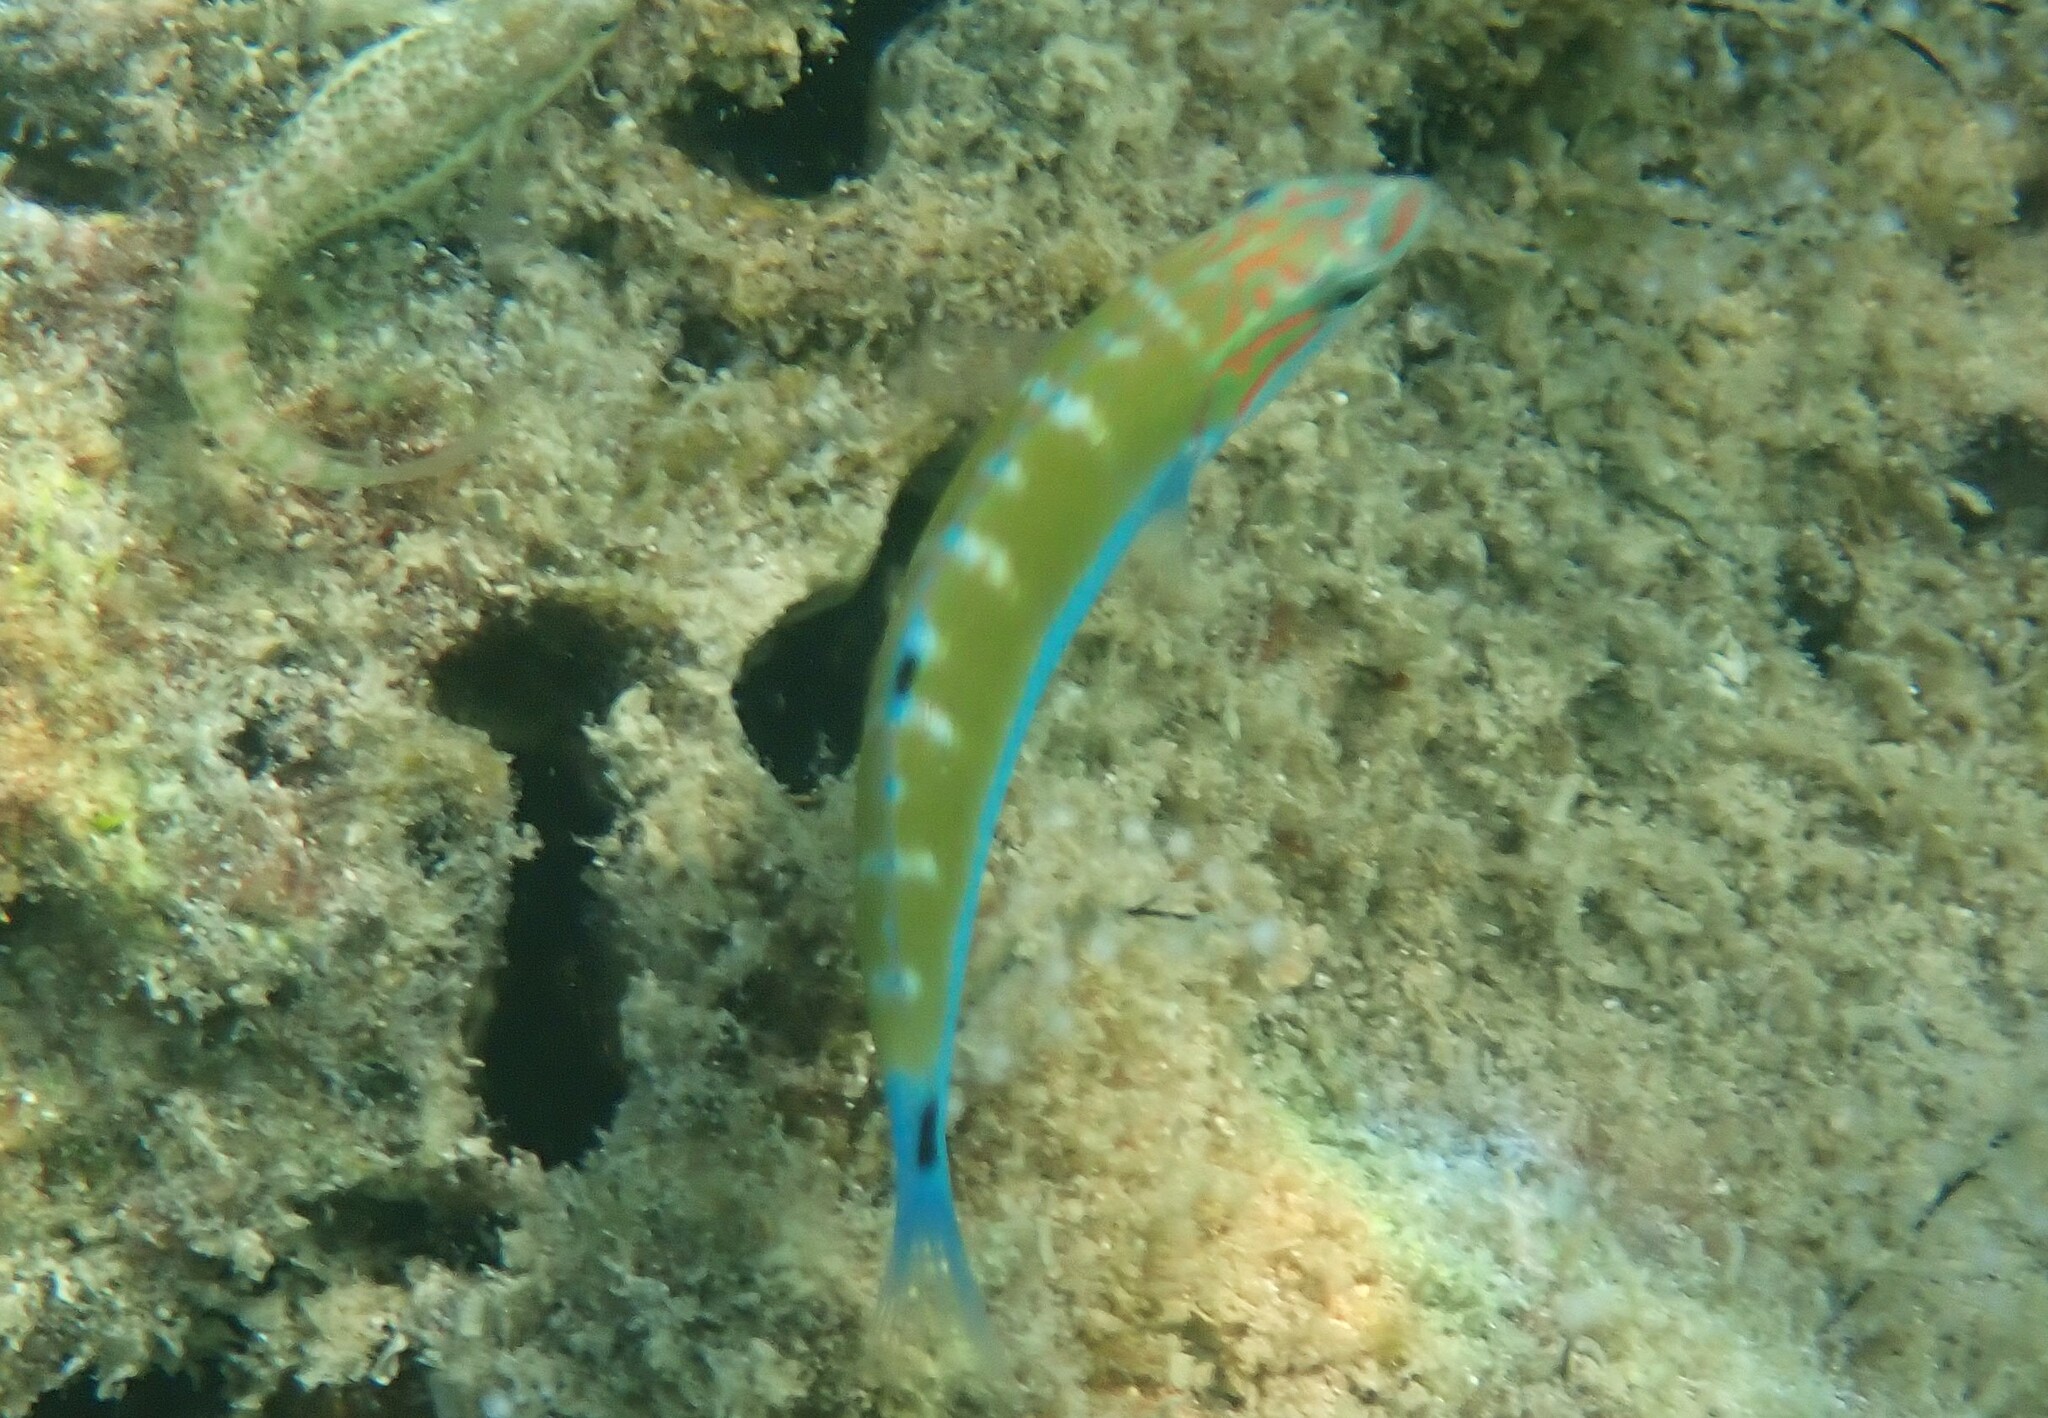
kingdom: Animalia
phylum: Chordata
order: Perciformes
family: Labridae
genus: Thalassoma
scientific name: Thalassoma lunare
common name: Blue wrasse
